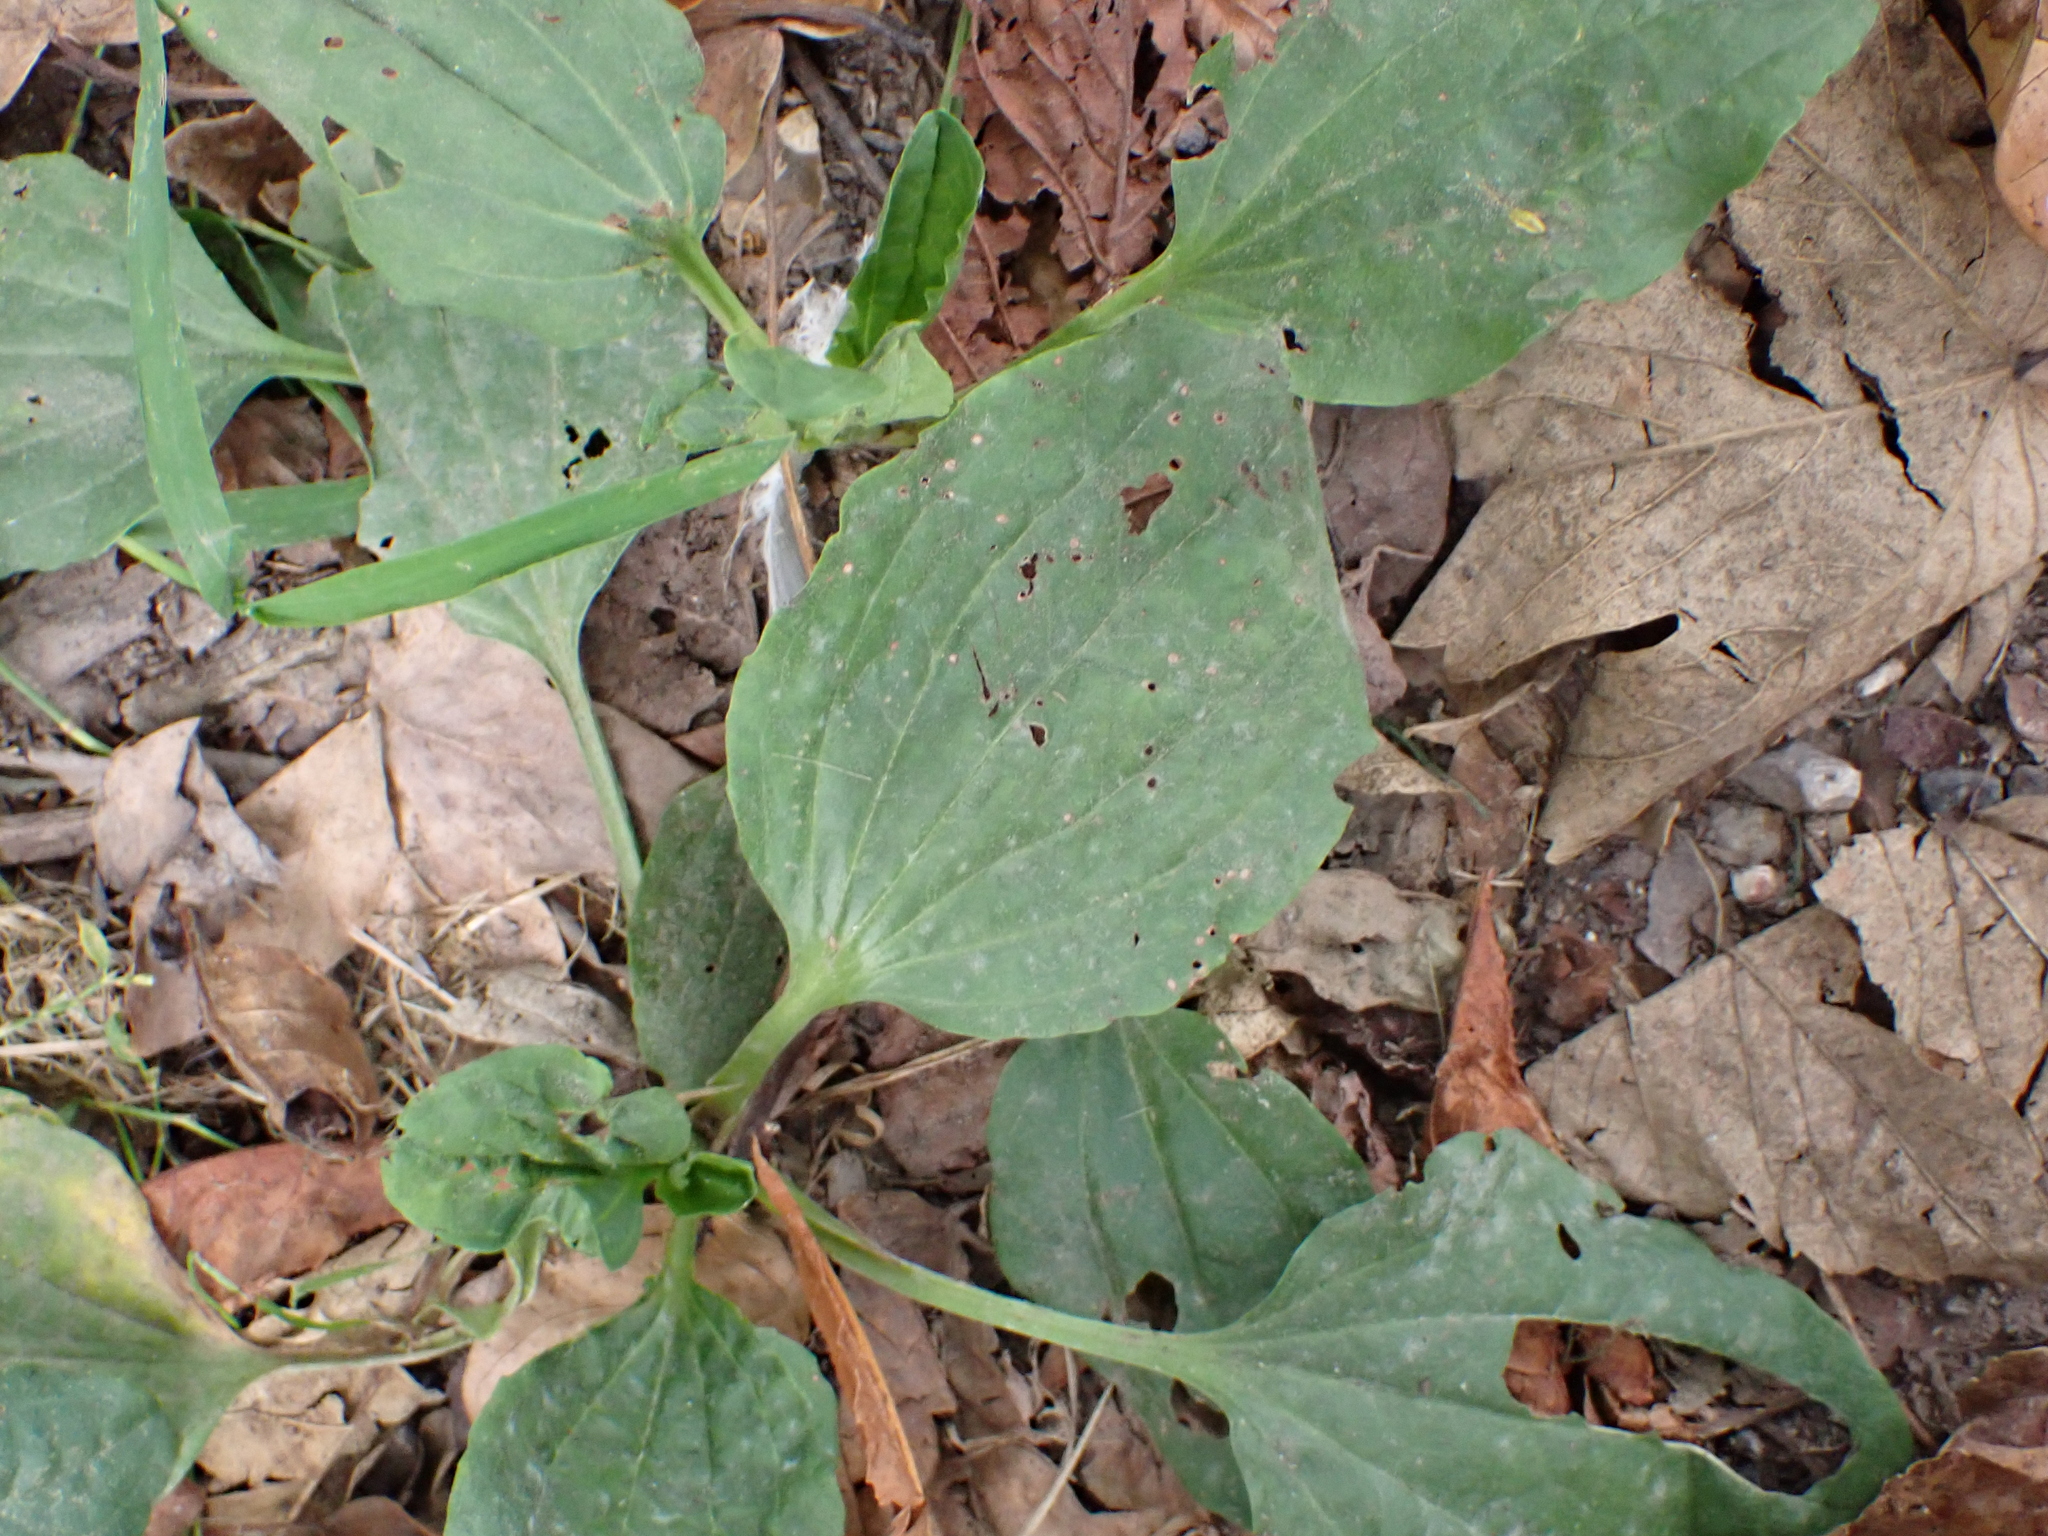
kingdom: Plantae
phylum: Tracheophyta
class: Magnoliopsida
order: Lamiales
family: Plantaginaceae
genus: Plantago
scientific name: Plantago major
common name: Common plantain
